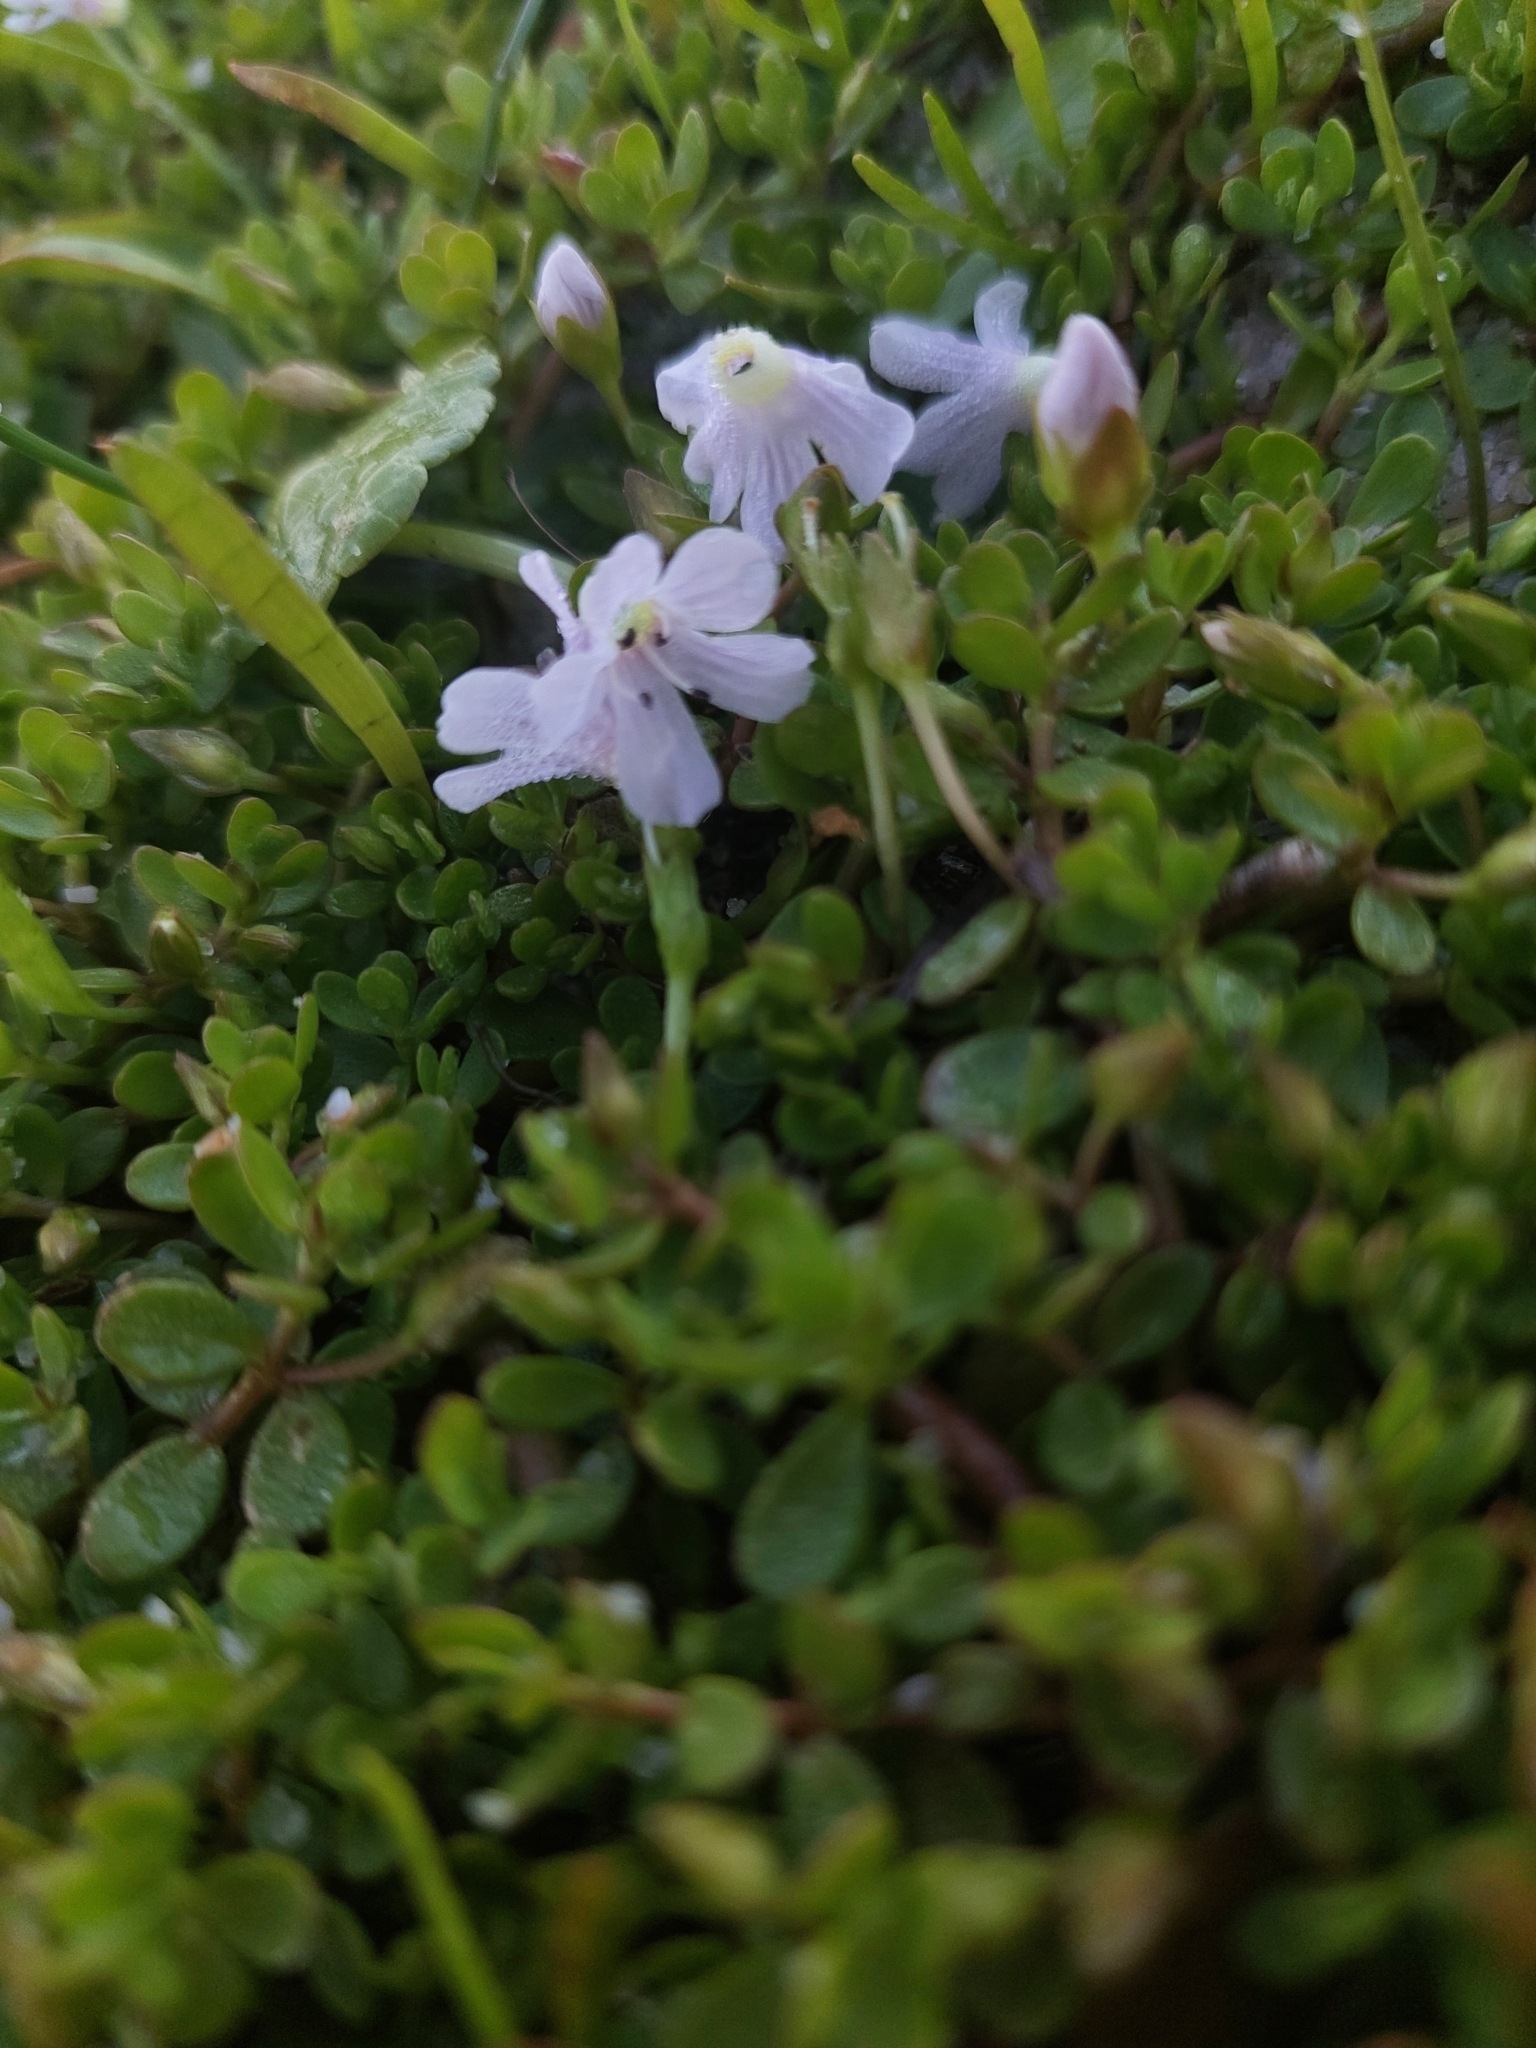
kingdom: Plantae
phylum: Tracheophyta
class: Magnoliopsida
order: Lamiales
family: Plantaginaceae
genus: Bacopa
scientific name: Bacopa monnieri
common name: Indian-pennywort
